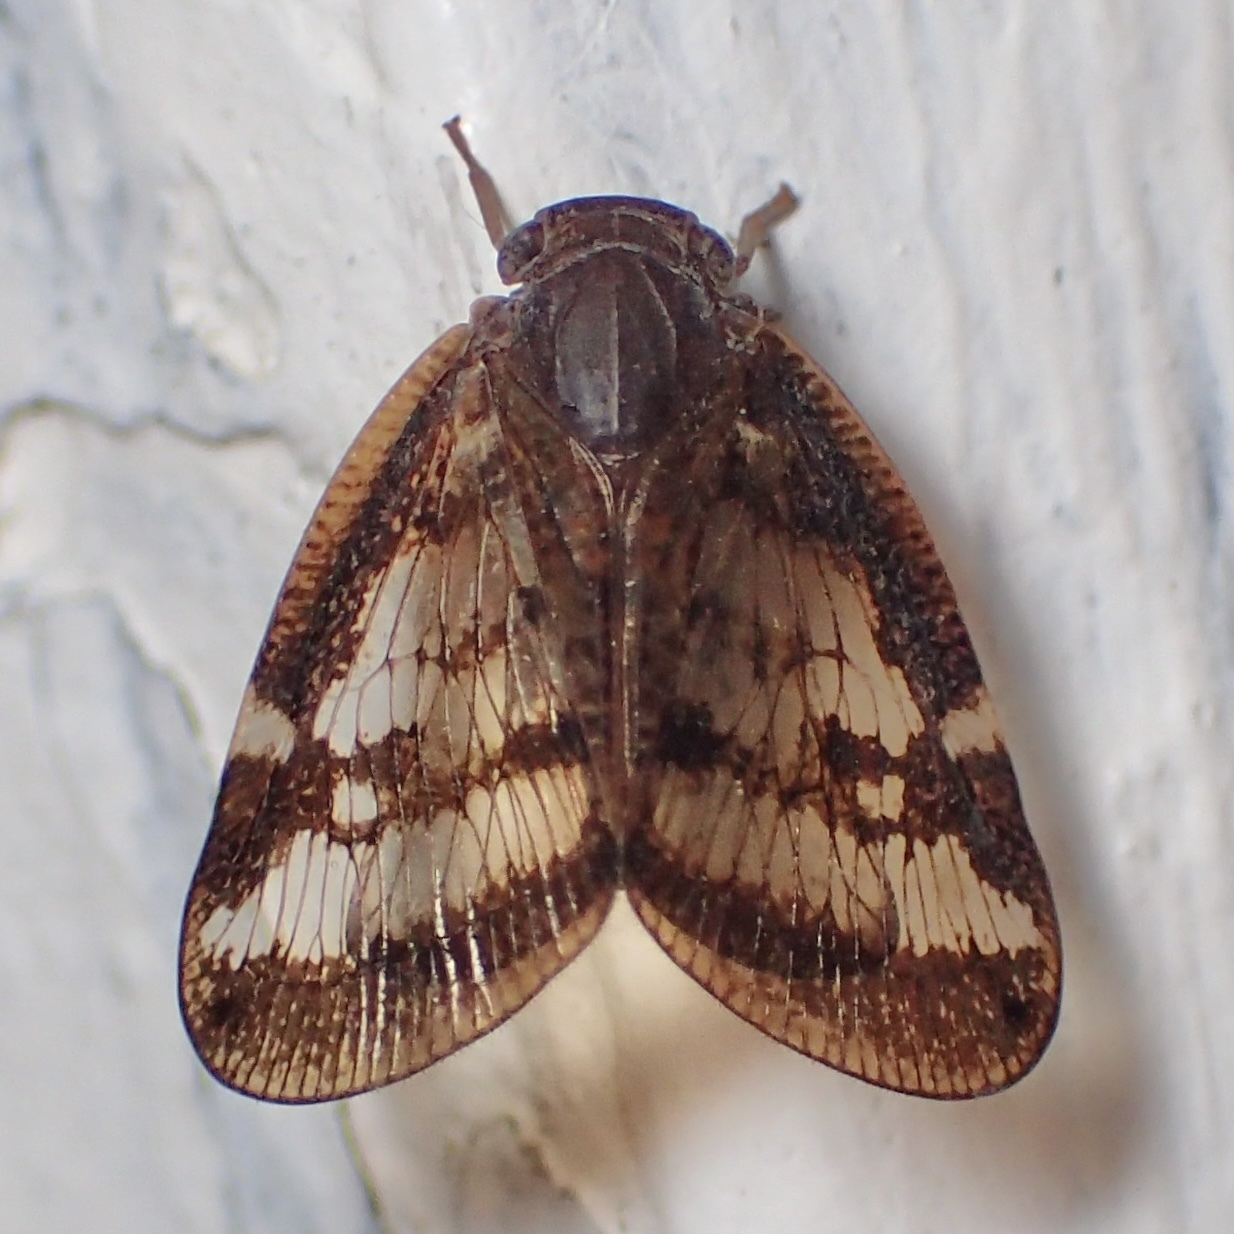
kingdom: Animalia
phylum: Arthropoda
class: Insecta
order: Hemiptera
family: Ricaniidae
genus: Scolypopa
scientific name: Scolypopa australis
